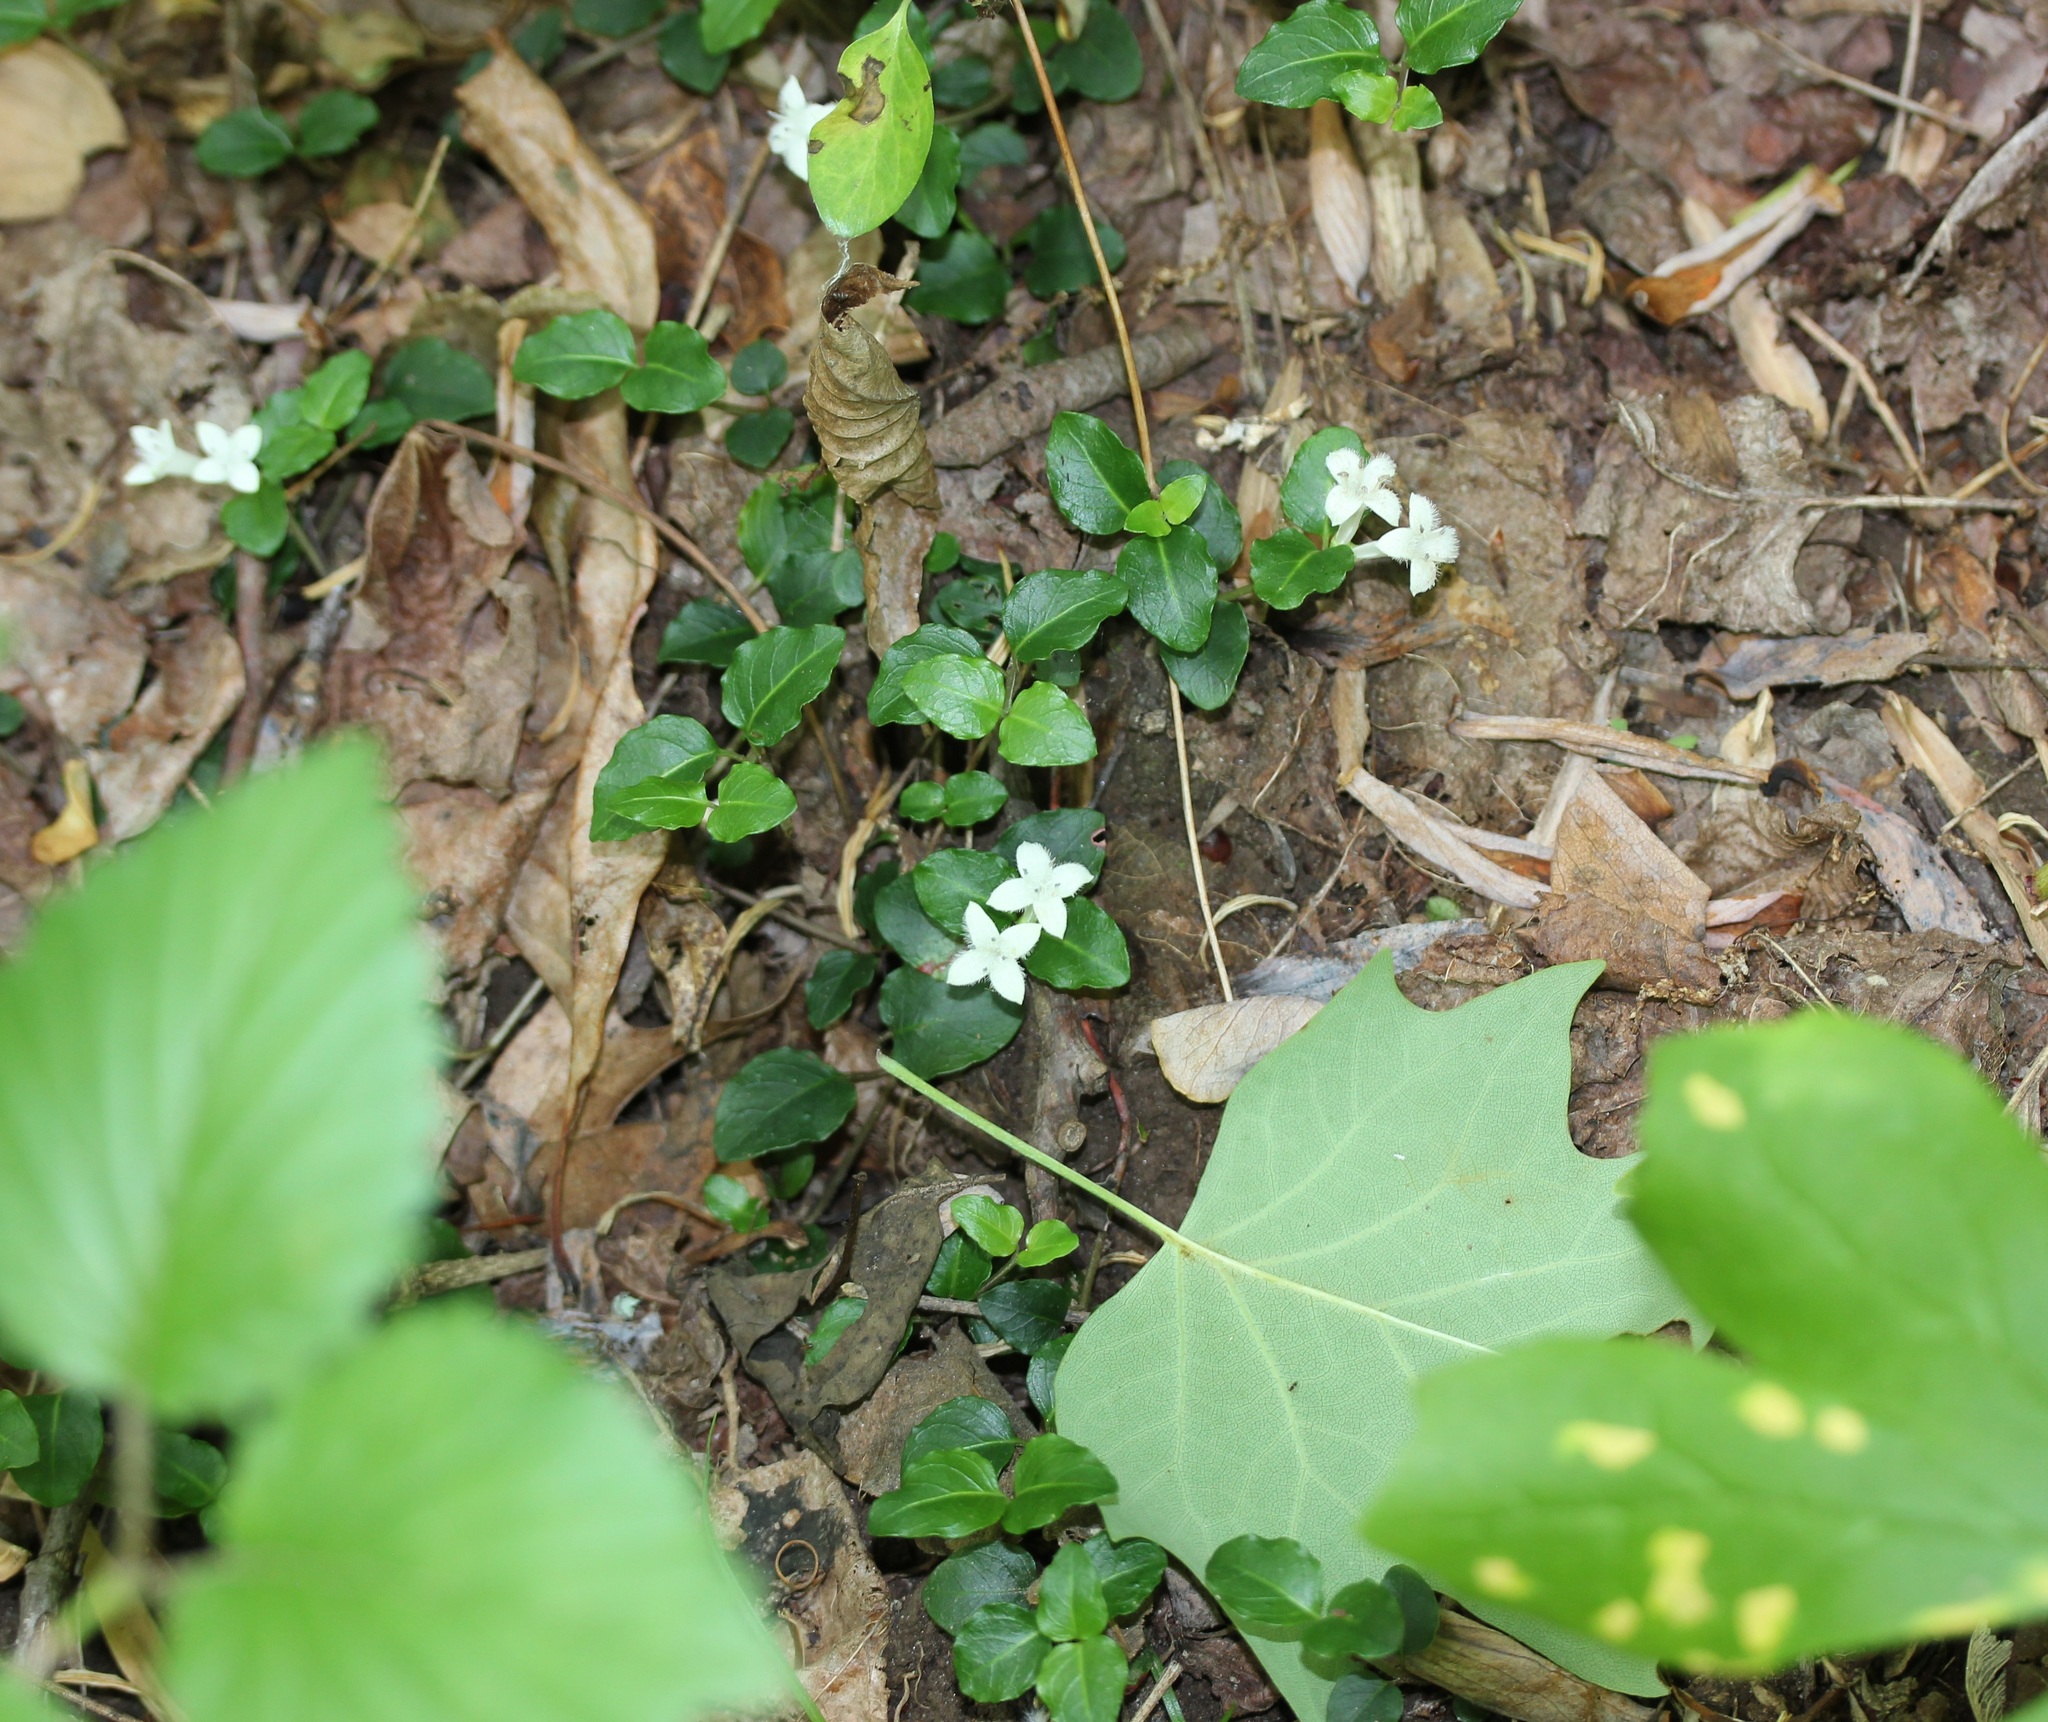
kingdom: Plantae
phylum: Tracheophyta
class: Magnoliopsida
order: Gentianales
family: Rubiaceae
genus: Mitchella
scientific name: Mitchella repens
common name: Partridge-berry
